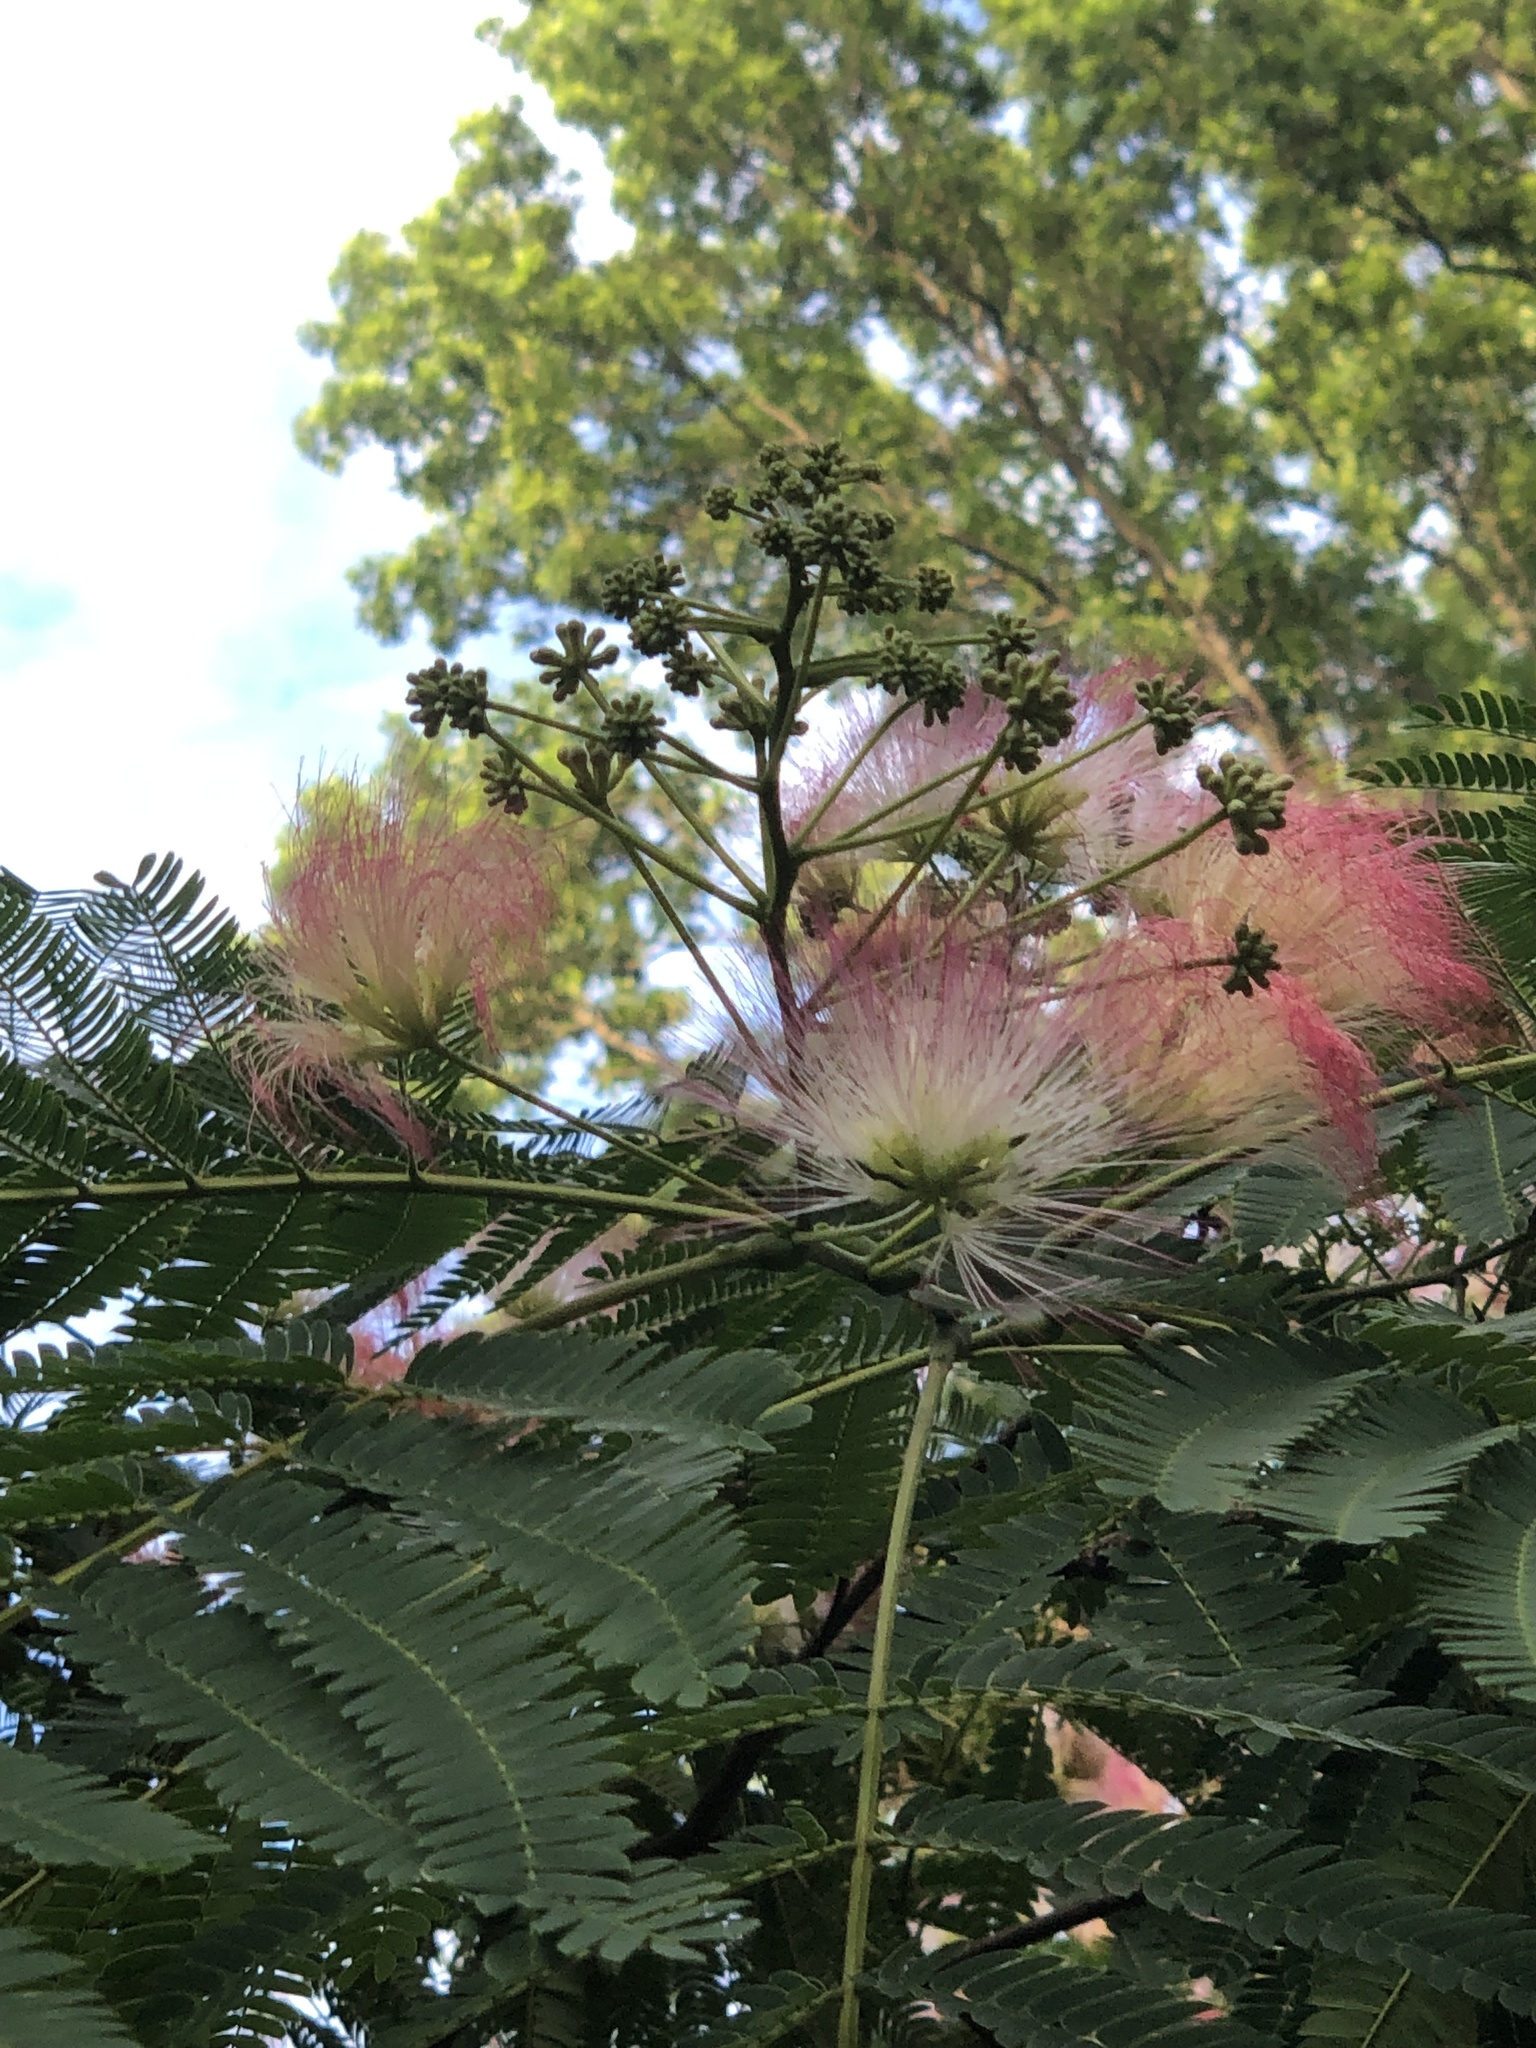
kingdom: Plantae
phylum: Tracheophyta
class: Magnoliopsida
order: Fabales
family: Fabaceae
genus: Albizia
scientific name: Albizia julibrissin
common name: Silktree
